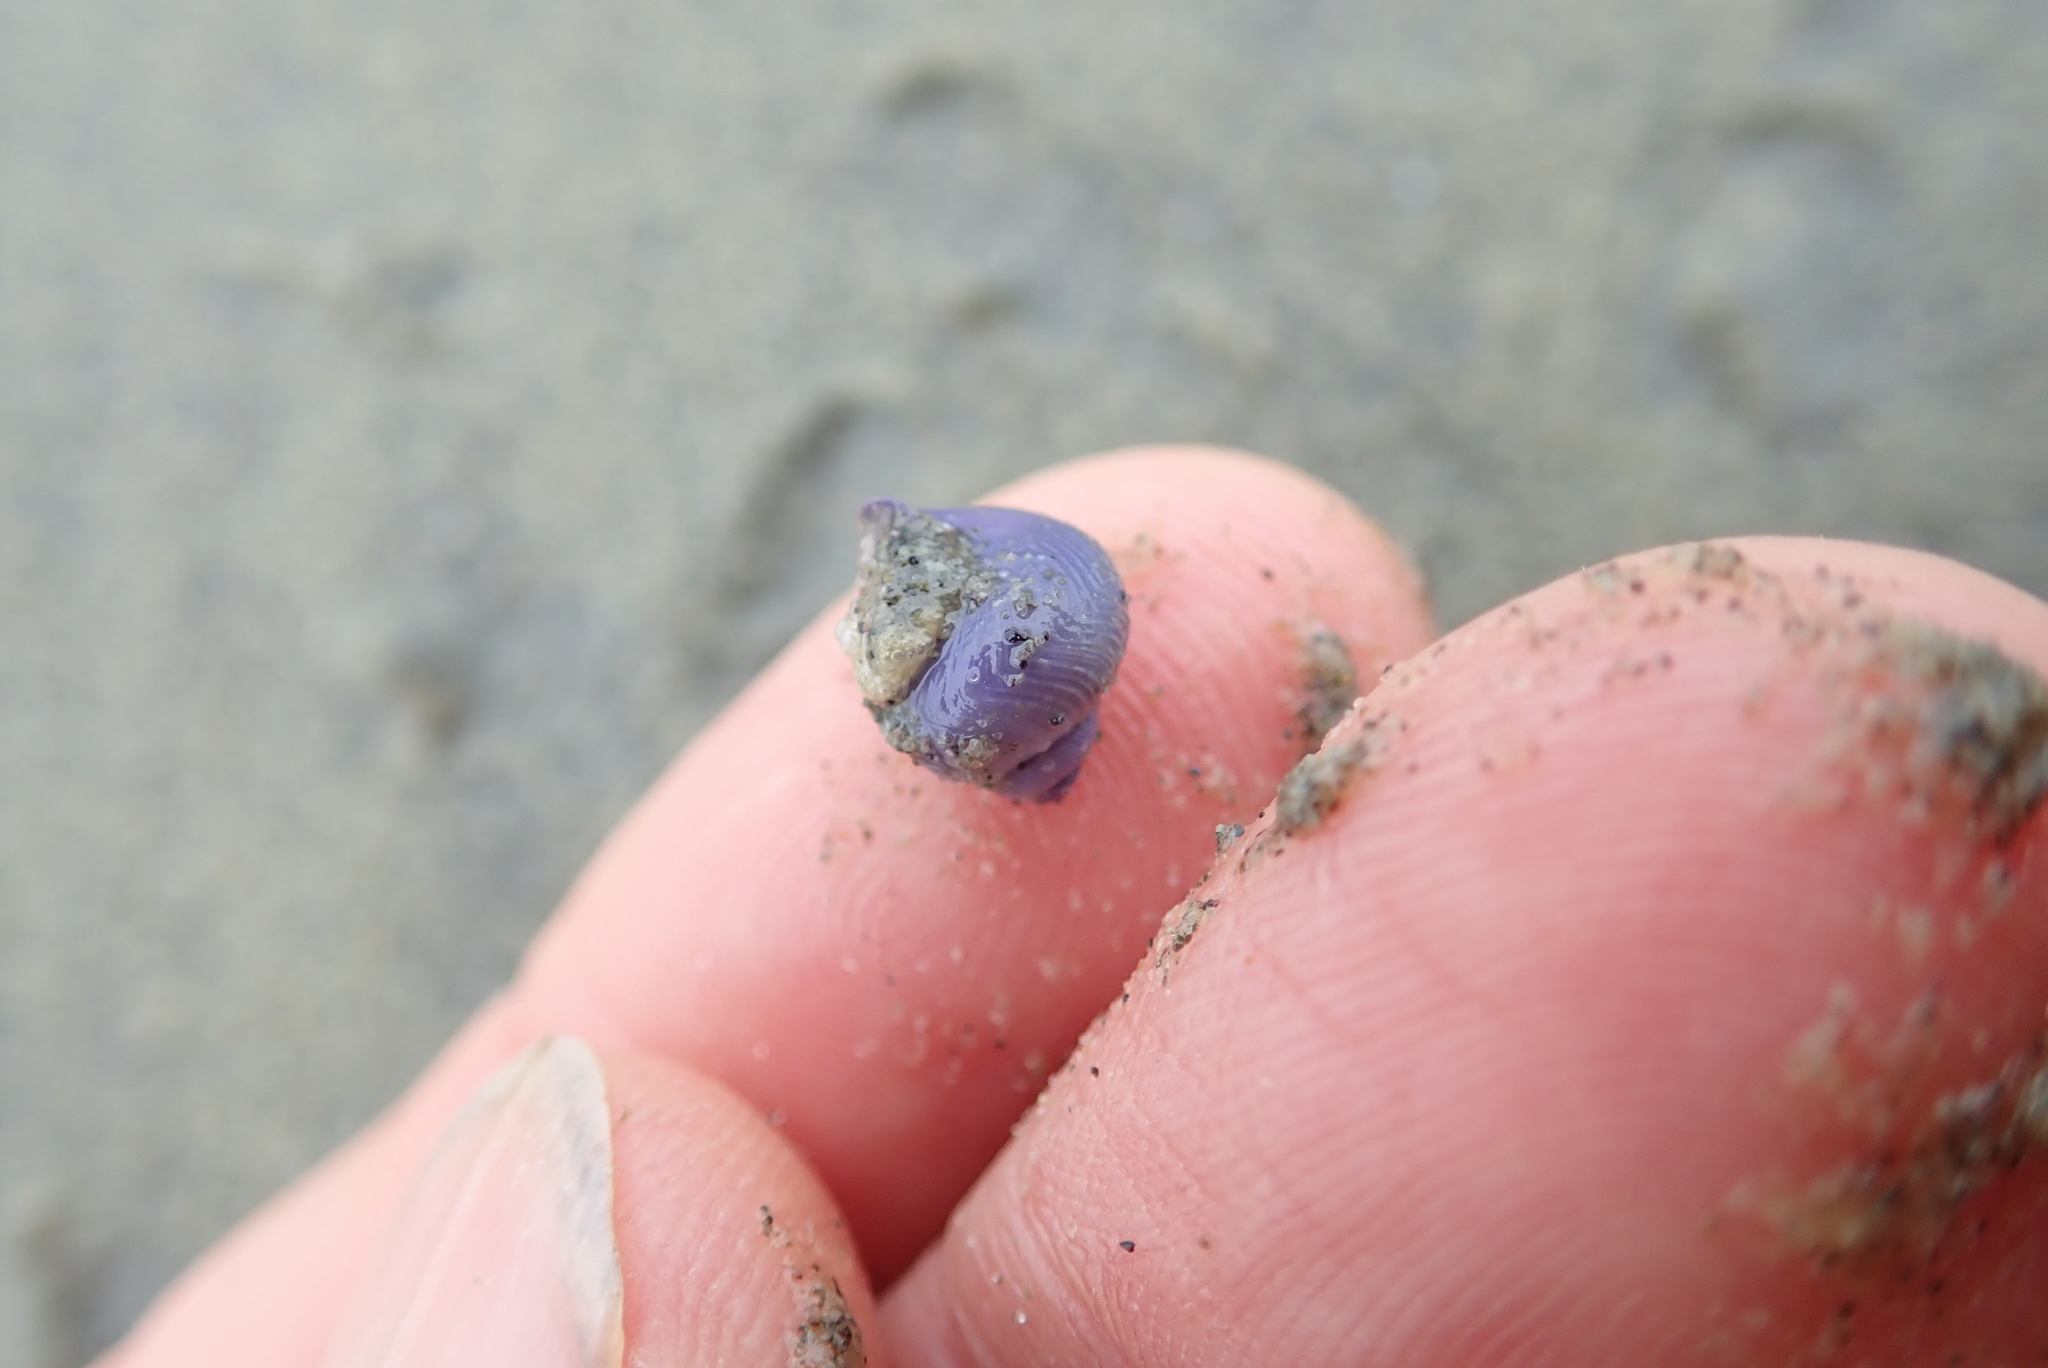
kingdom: Animalia
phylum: Mollusca
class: Gastropoda
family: Epitoniidae
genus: Janthina
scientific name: Janthina exigua
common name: Dwarf janthina
